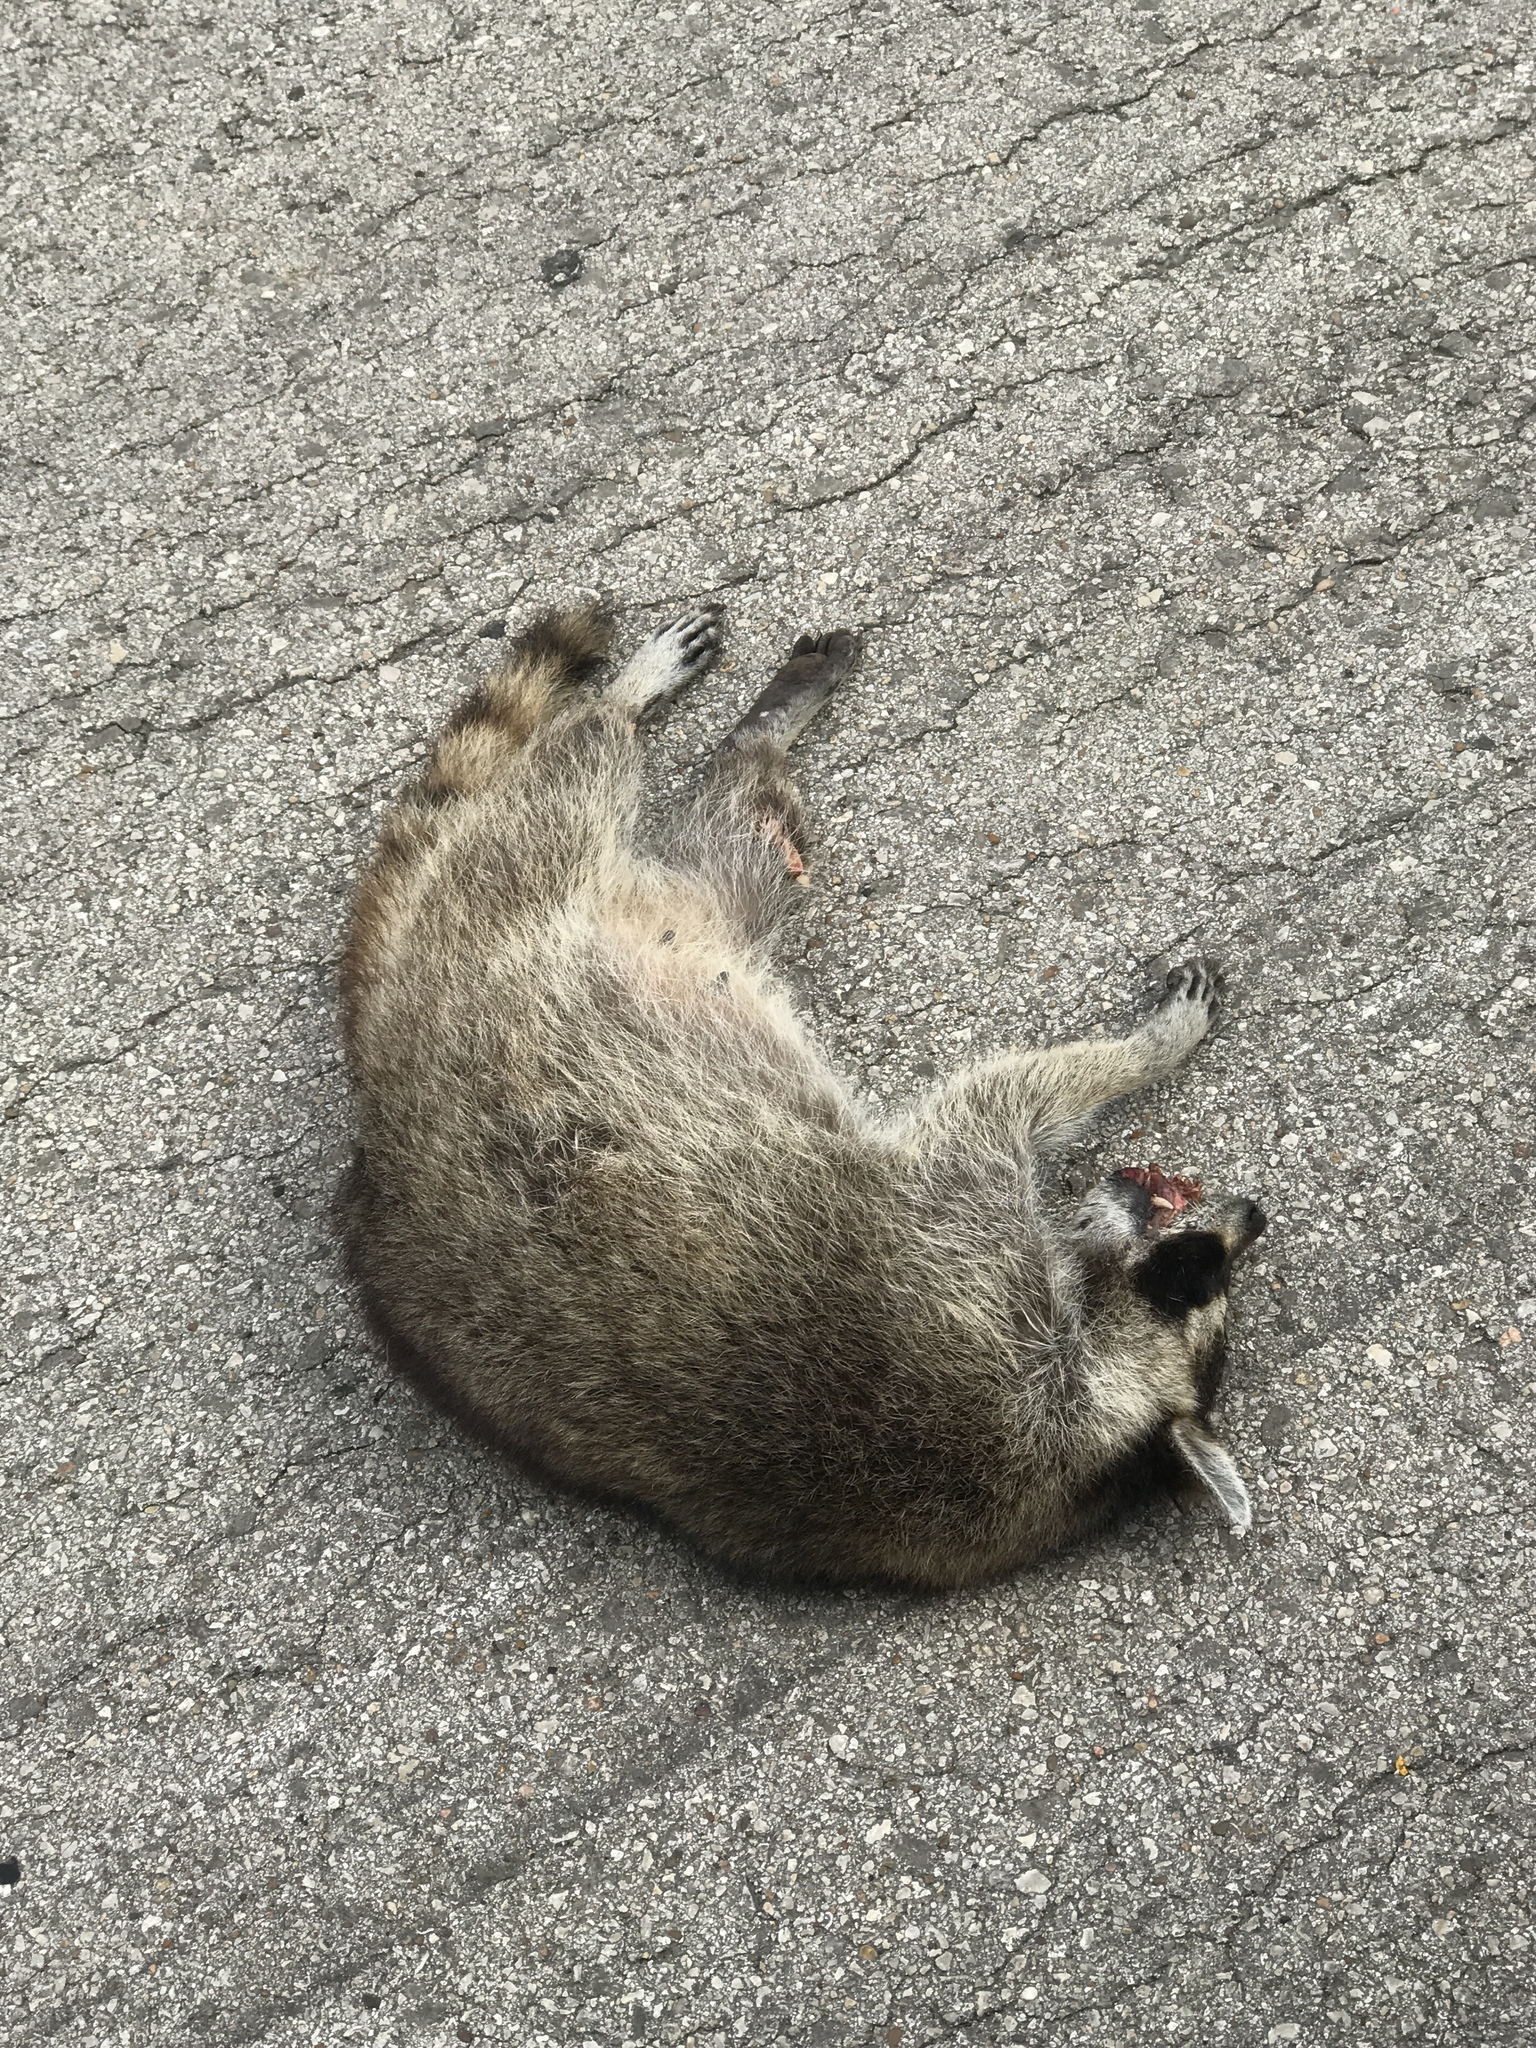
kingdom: Animalia
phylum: Chordata
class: Mammalia
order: Carnivora
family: Procyonidae
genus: Procyon
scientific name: Procyon lotor
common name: Raccoon
